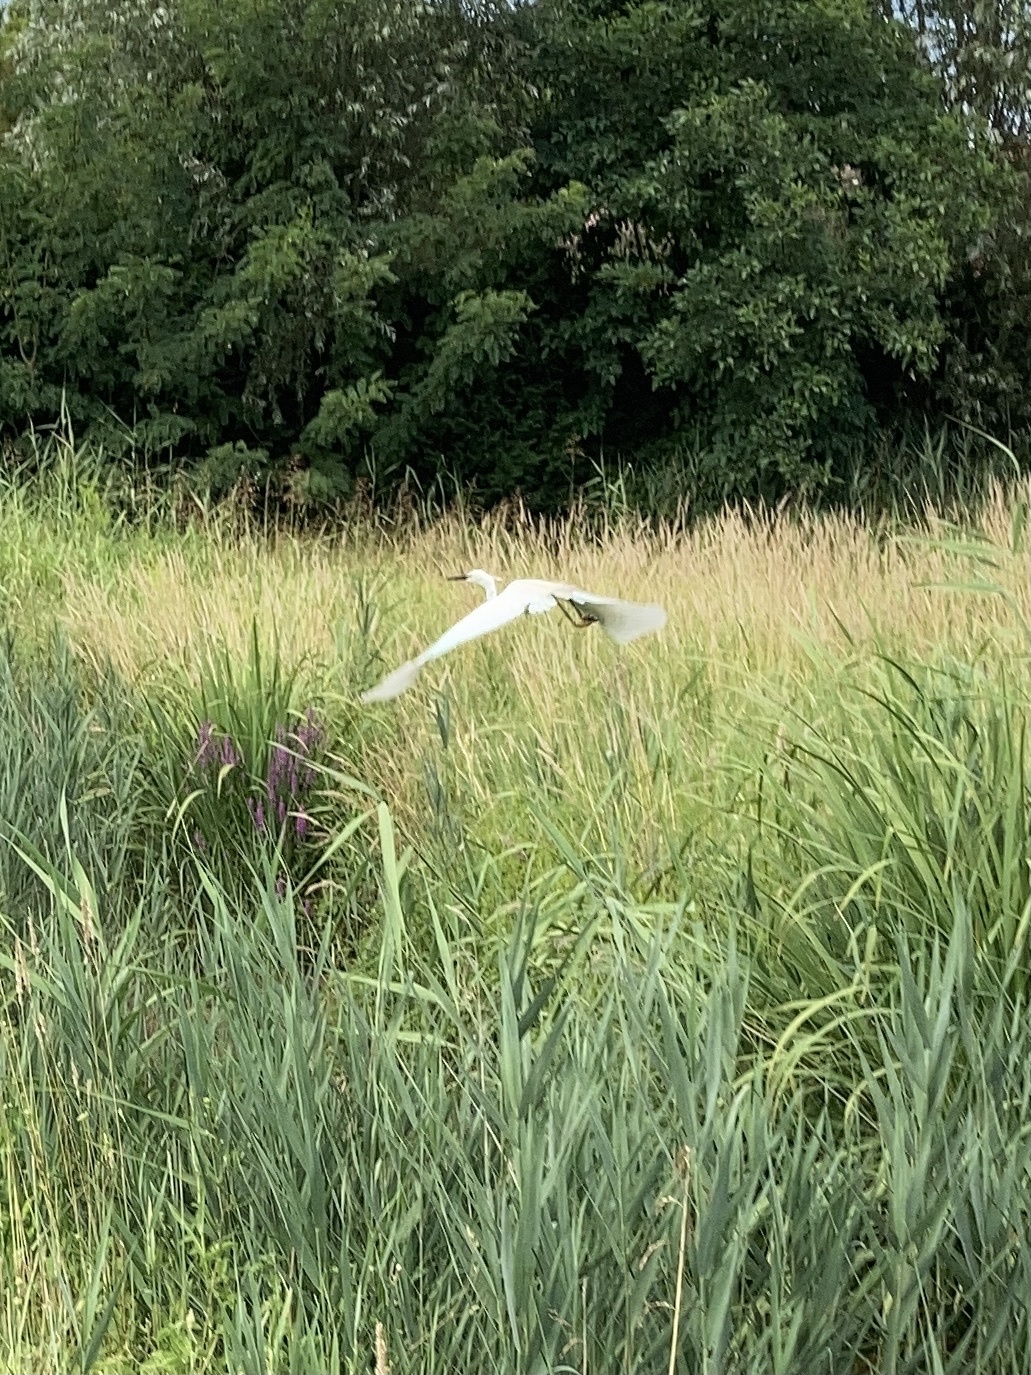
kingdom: Animalia
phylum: Chordata
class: Aves
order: Pelecaniformes
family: Ardeidae
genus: Egretta
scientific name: Egretta garzetta
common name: Little egret
